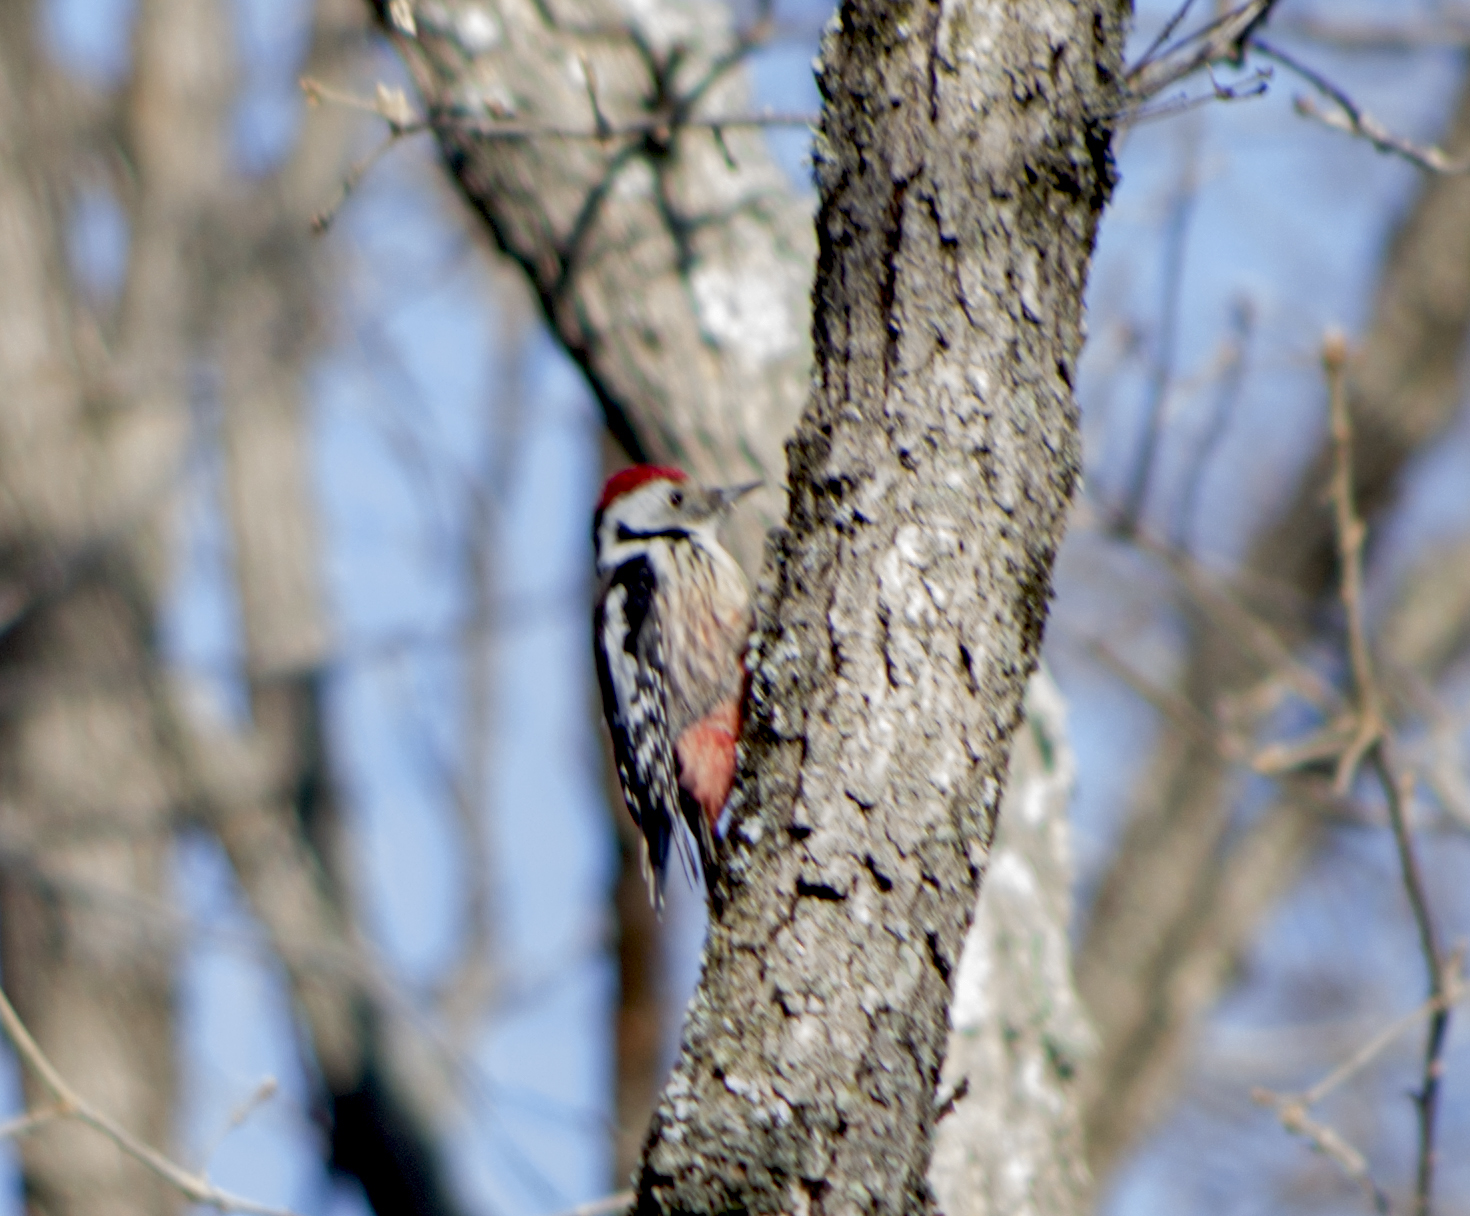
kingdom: Animalia
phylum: Chordata
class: Aves
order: Piciformes
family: Picidae
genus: Dendrocoptes
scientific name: Dendrocoptes medius
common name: Middle spotted woodpecker
